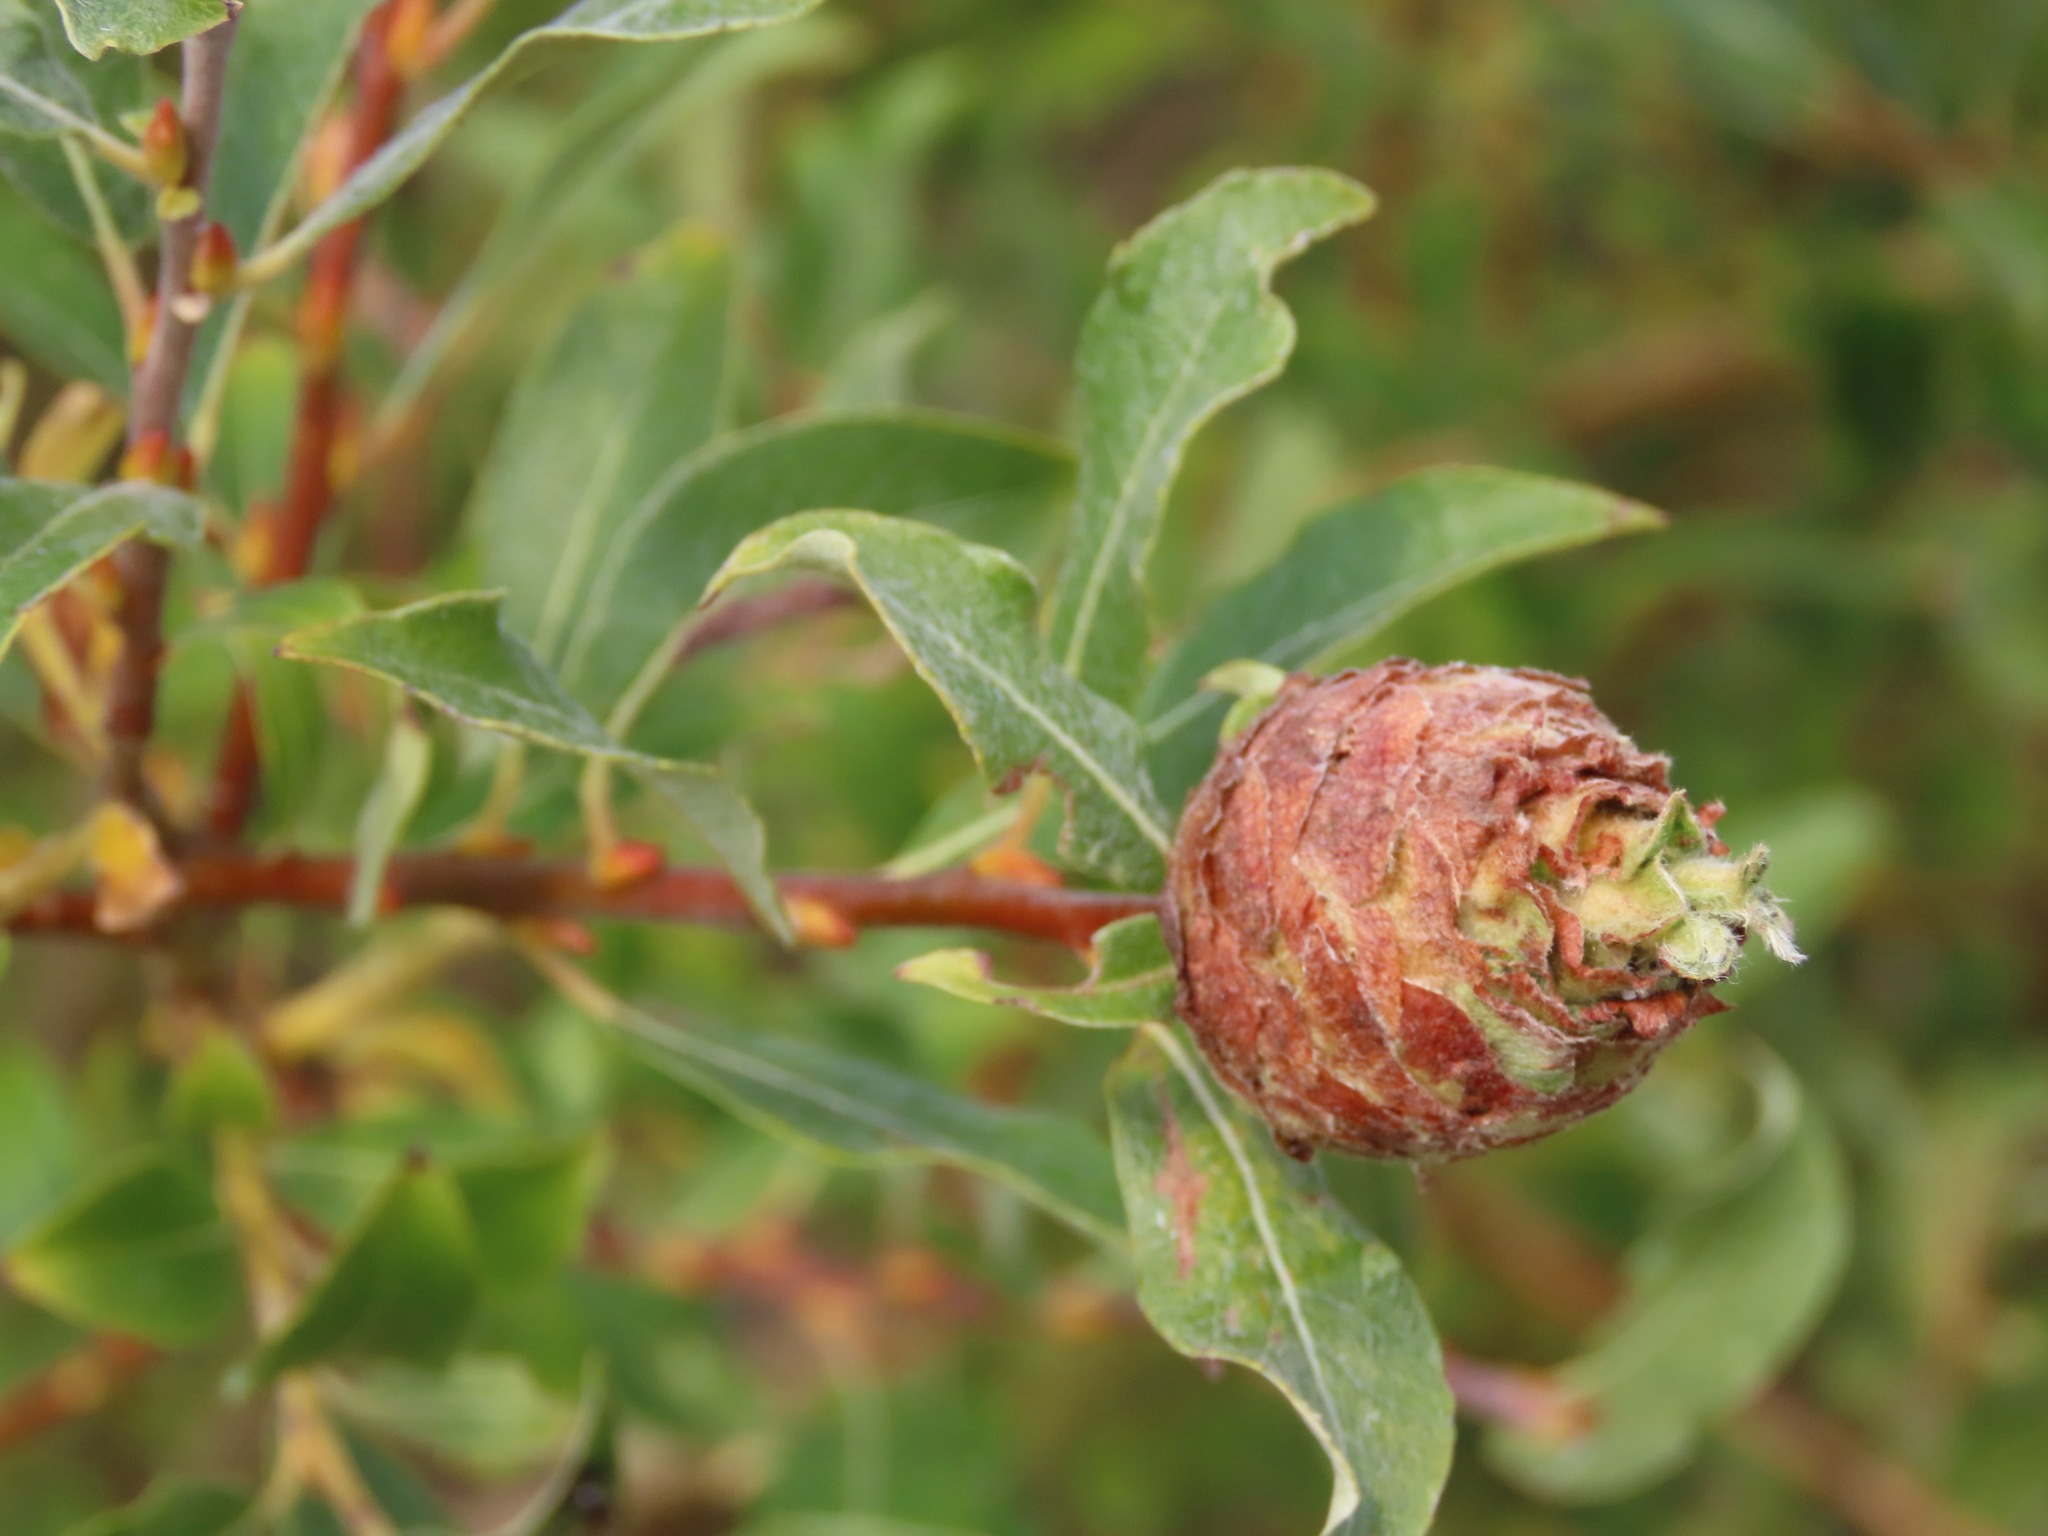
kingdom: Animalia
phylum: Arthropoda
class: Insecta
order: Diptera
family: Cecidomyiidae
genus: Rabdophaga
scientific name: Rabdophaga strobiloides
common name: Willow pinecone gall midge
